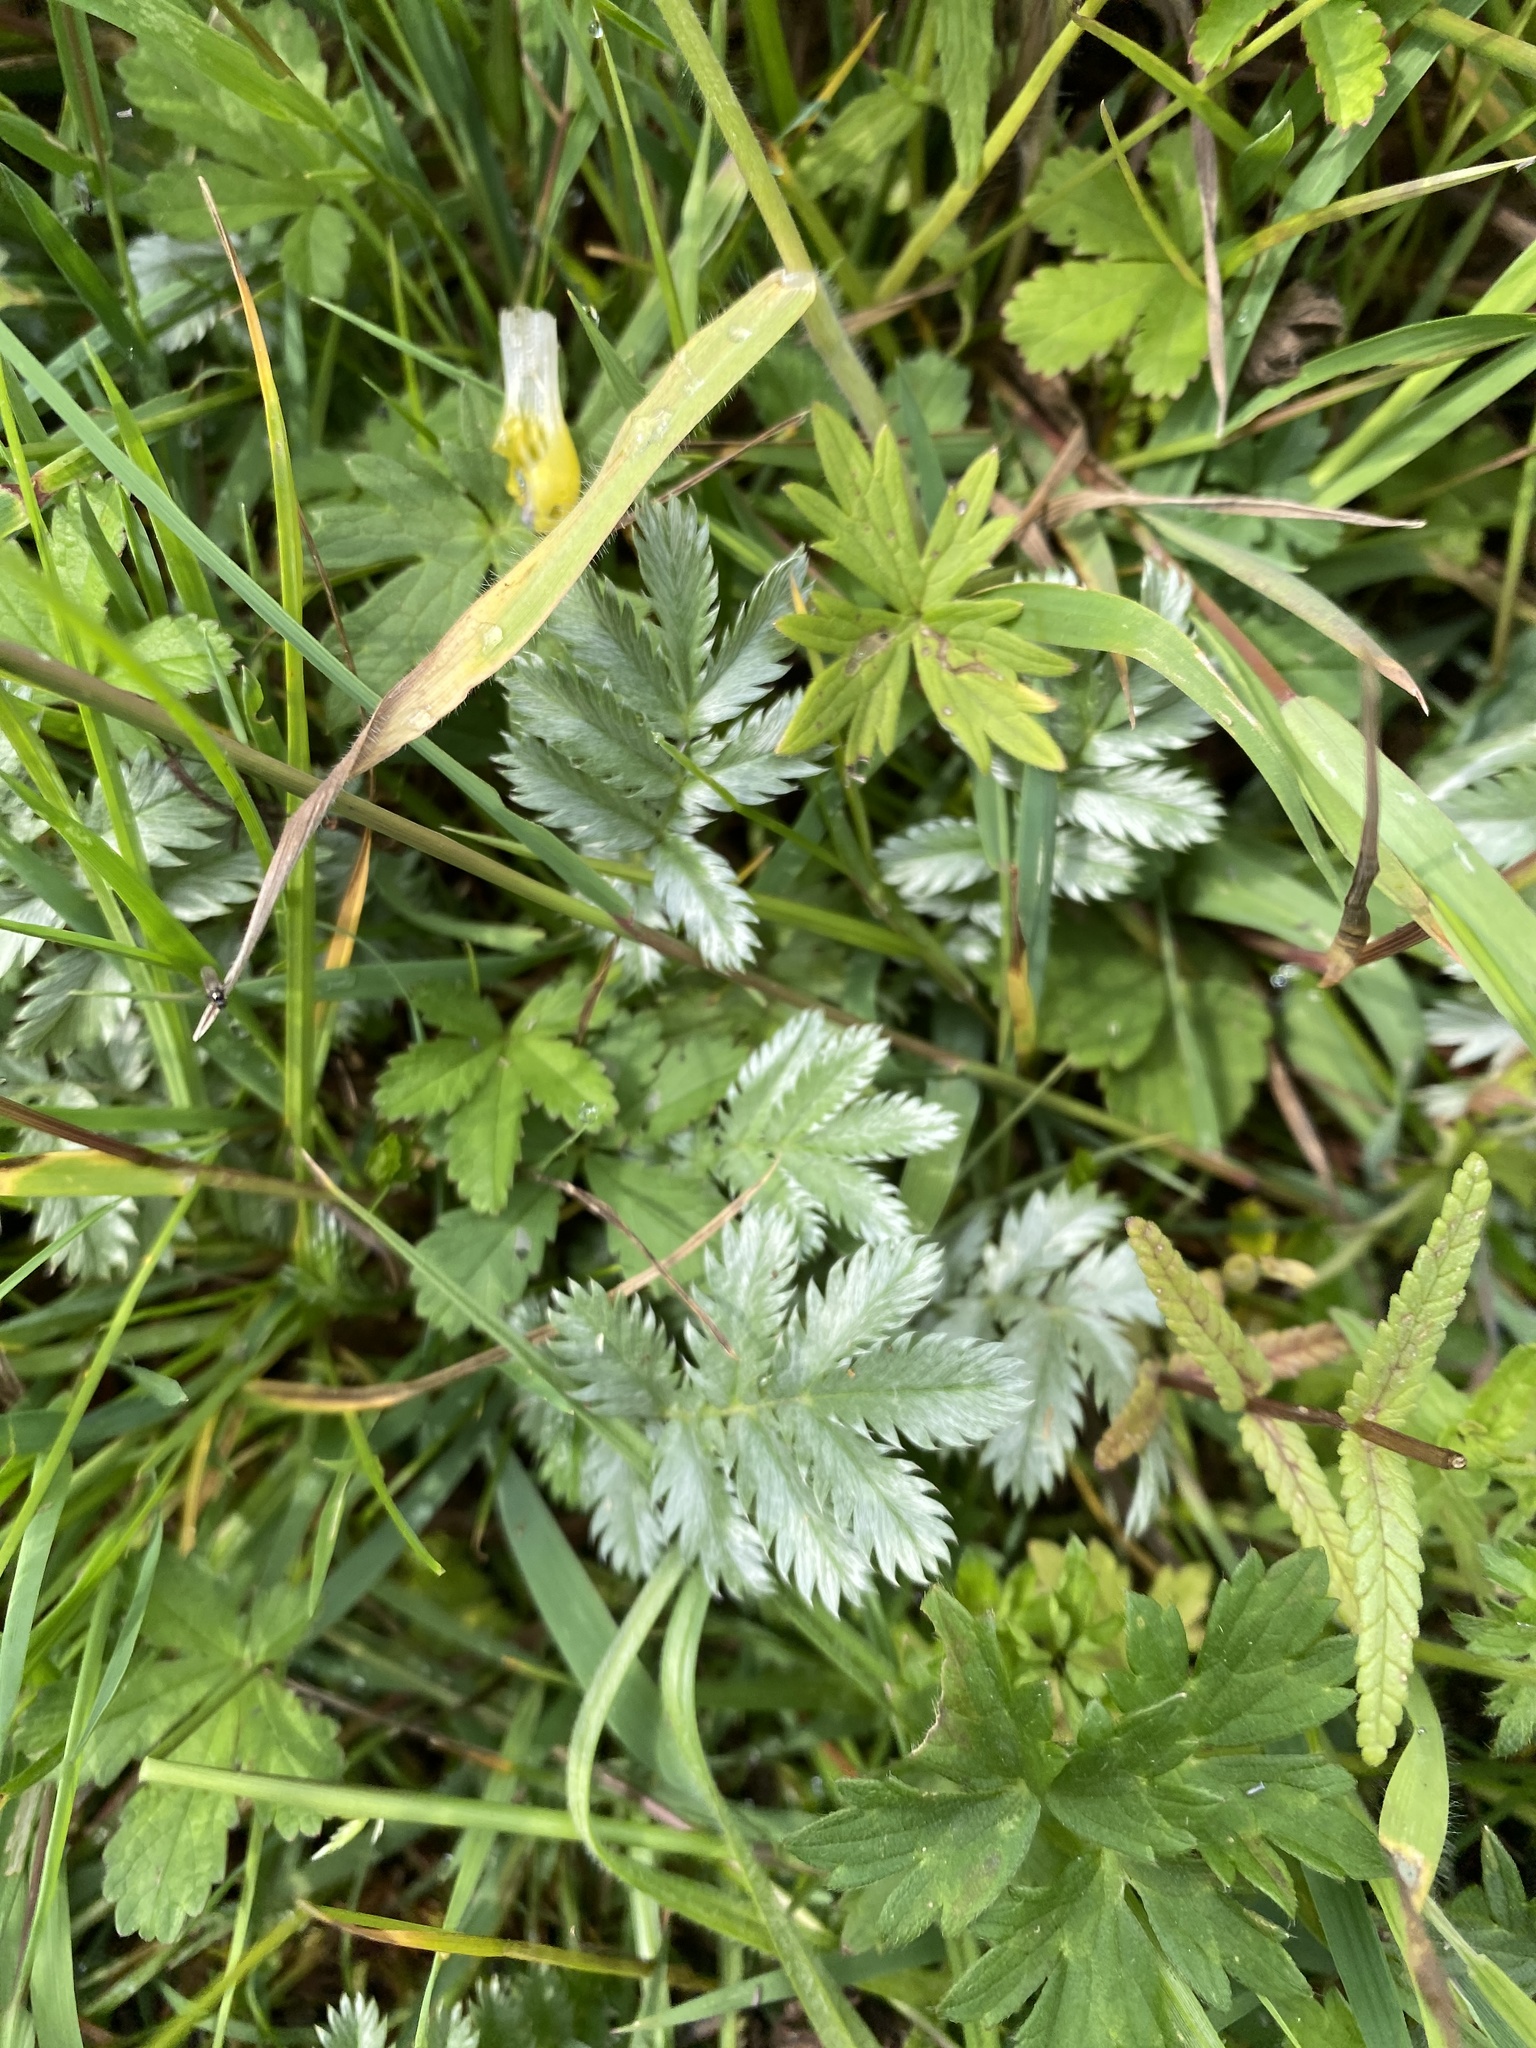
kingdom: Plantae
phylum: Tracheophyta
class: Magnoliopsida
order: Rosales
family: Rosaceae
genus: Argentina
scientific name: Argentina anserina
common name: Common silverweed
